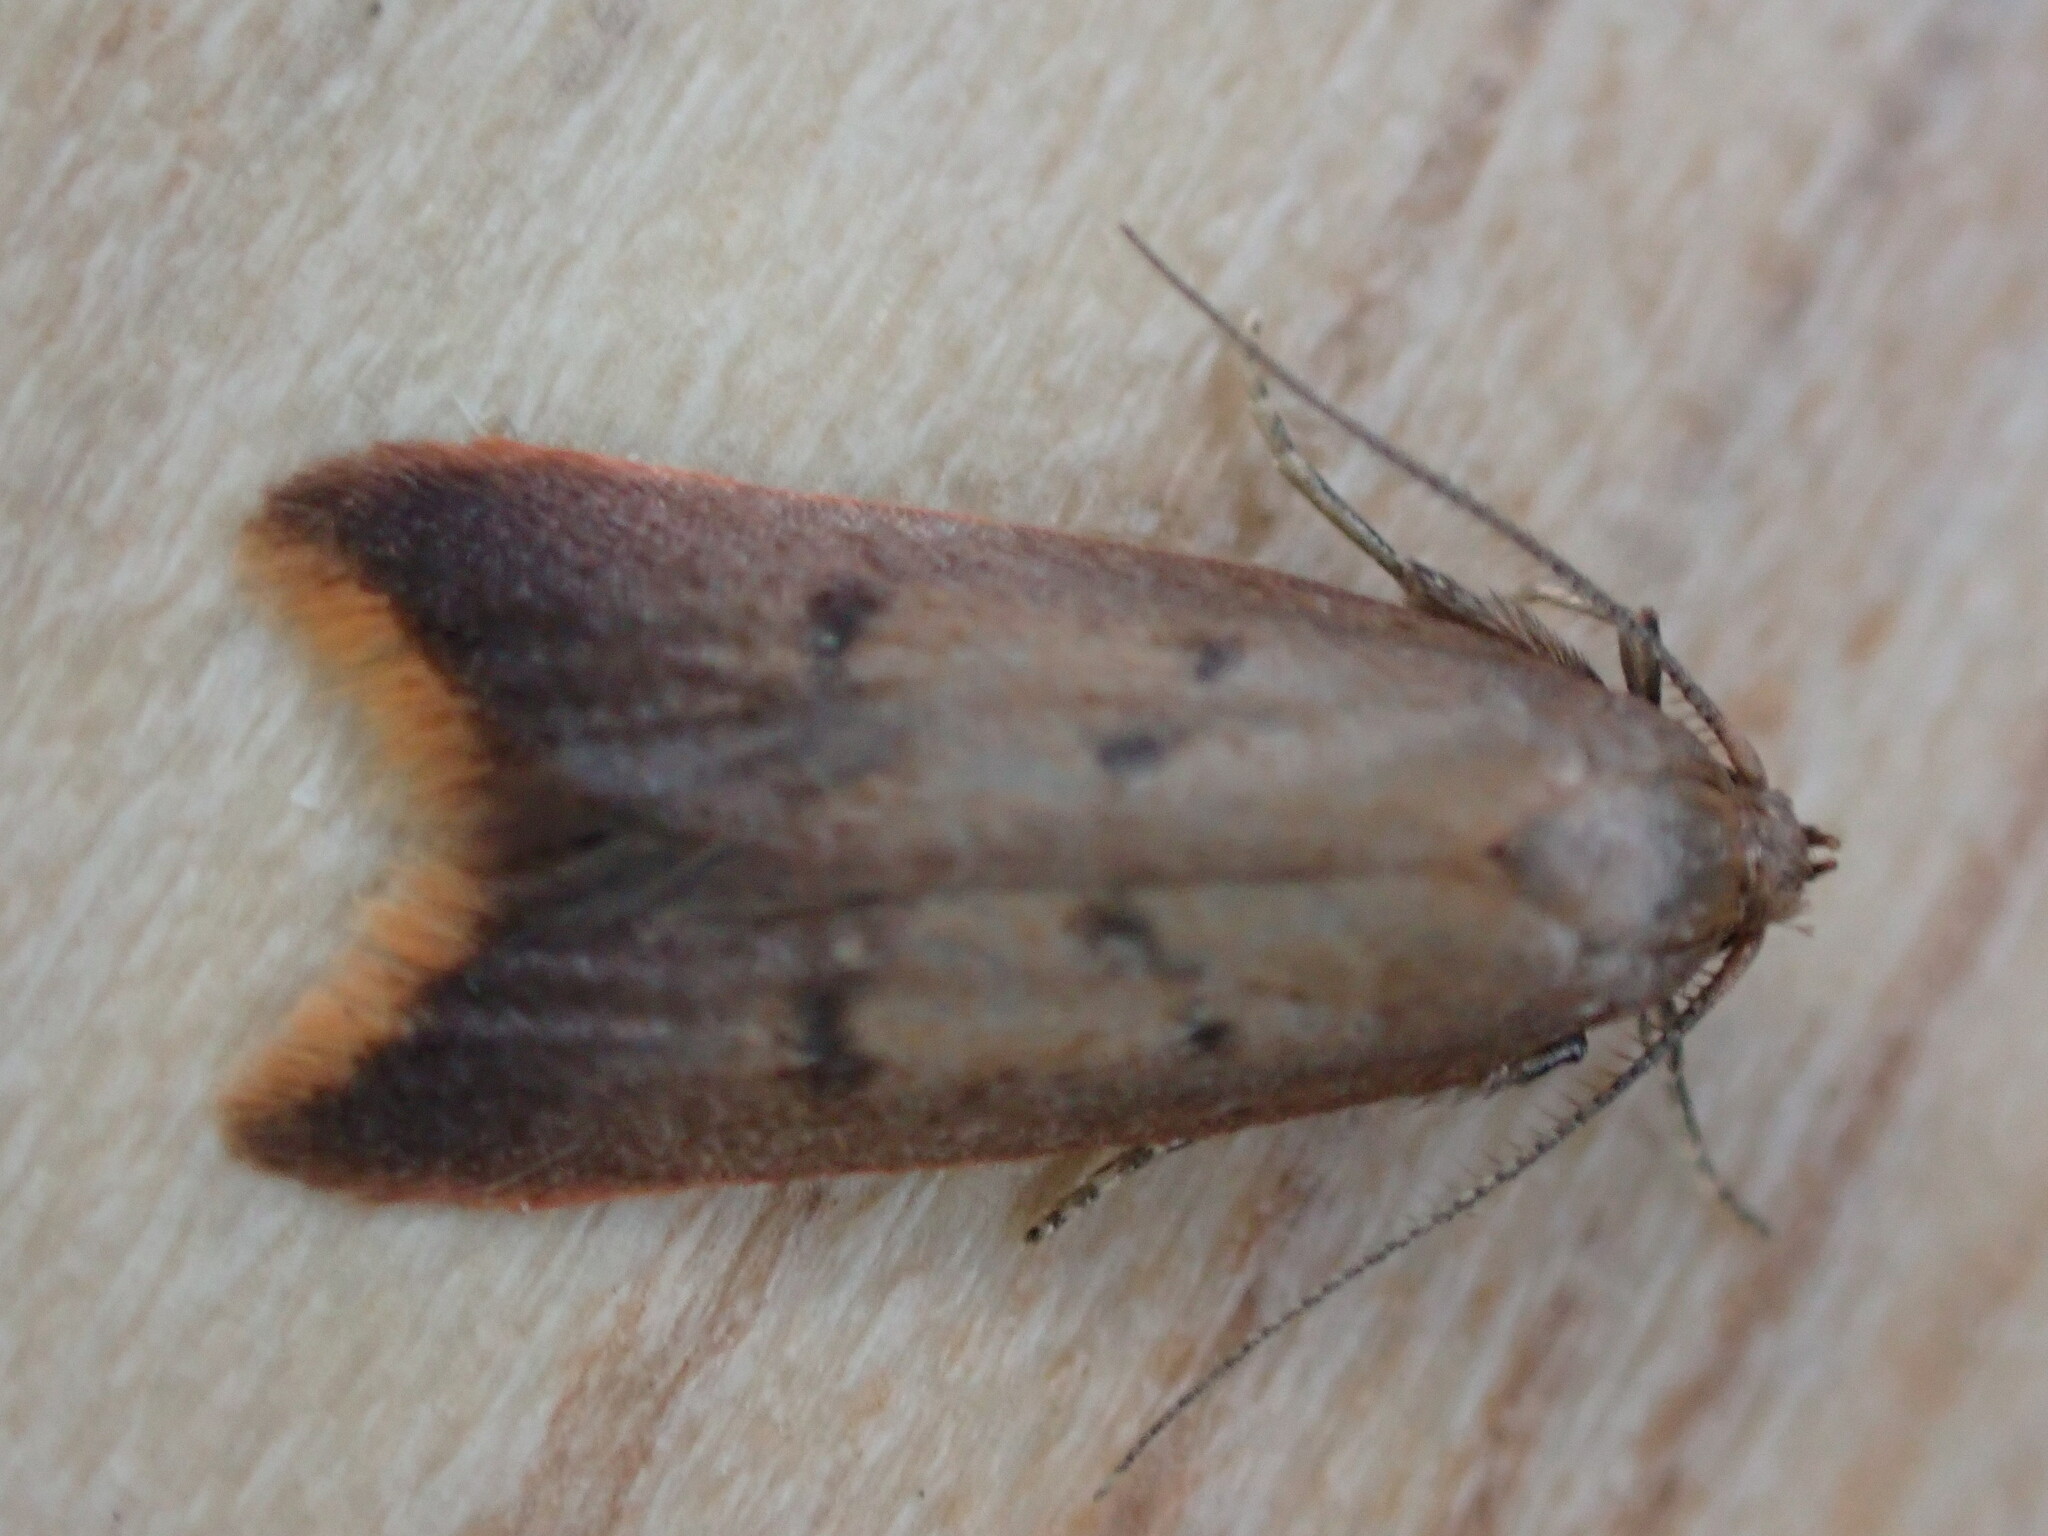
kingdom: Animalia
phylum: Arthropoda
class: Insecta
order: Lepidoptera
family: Oecophoridae
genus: Tachystola
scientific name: Tachystola acroxantha
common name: Ruddy streak
